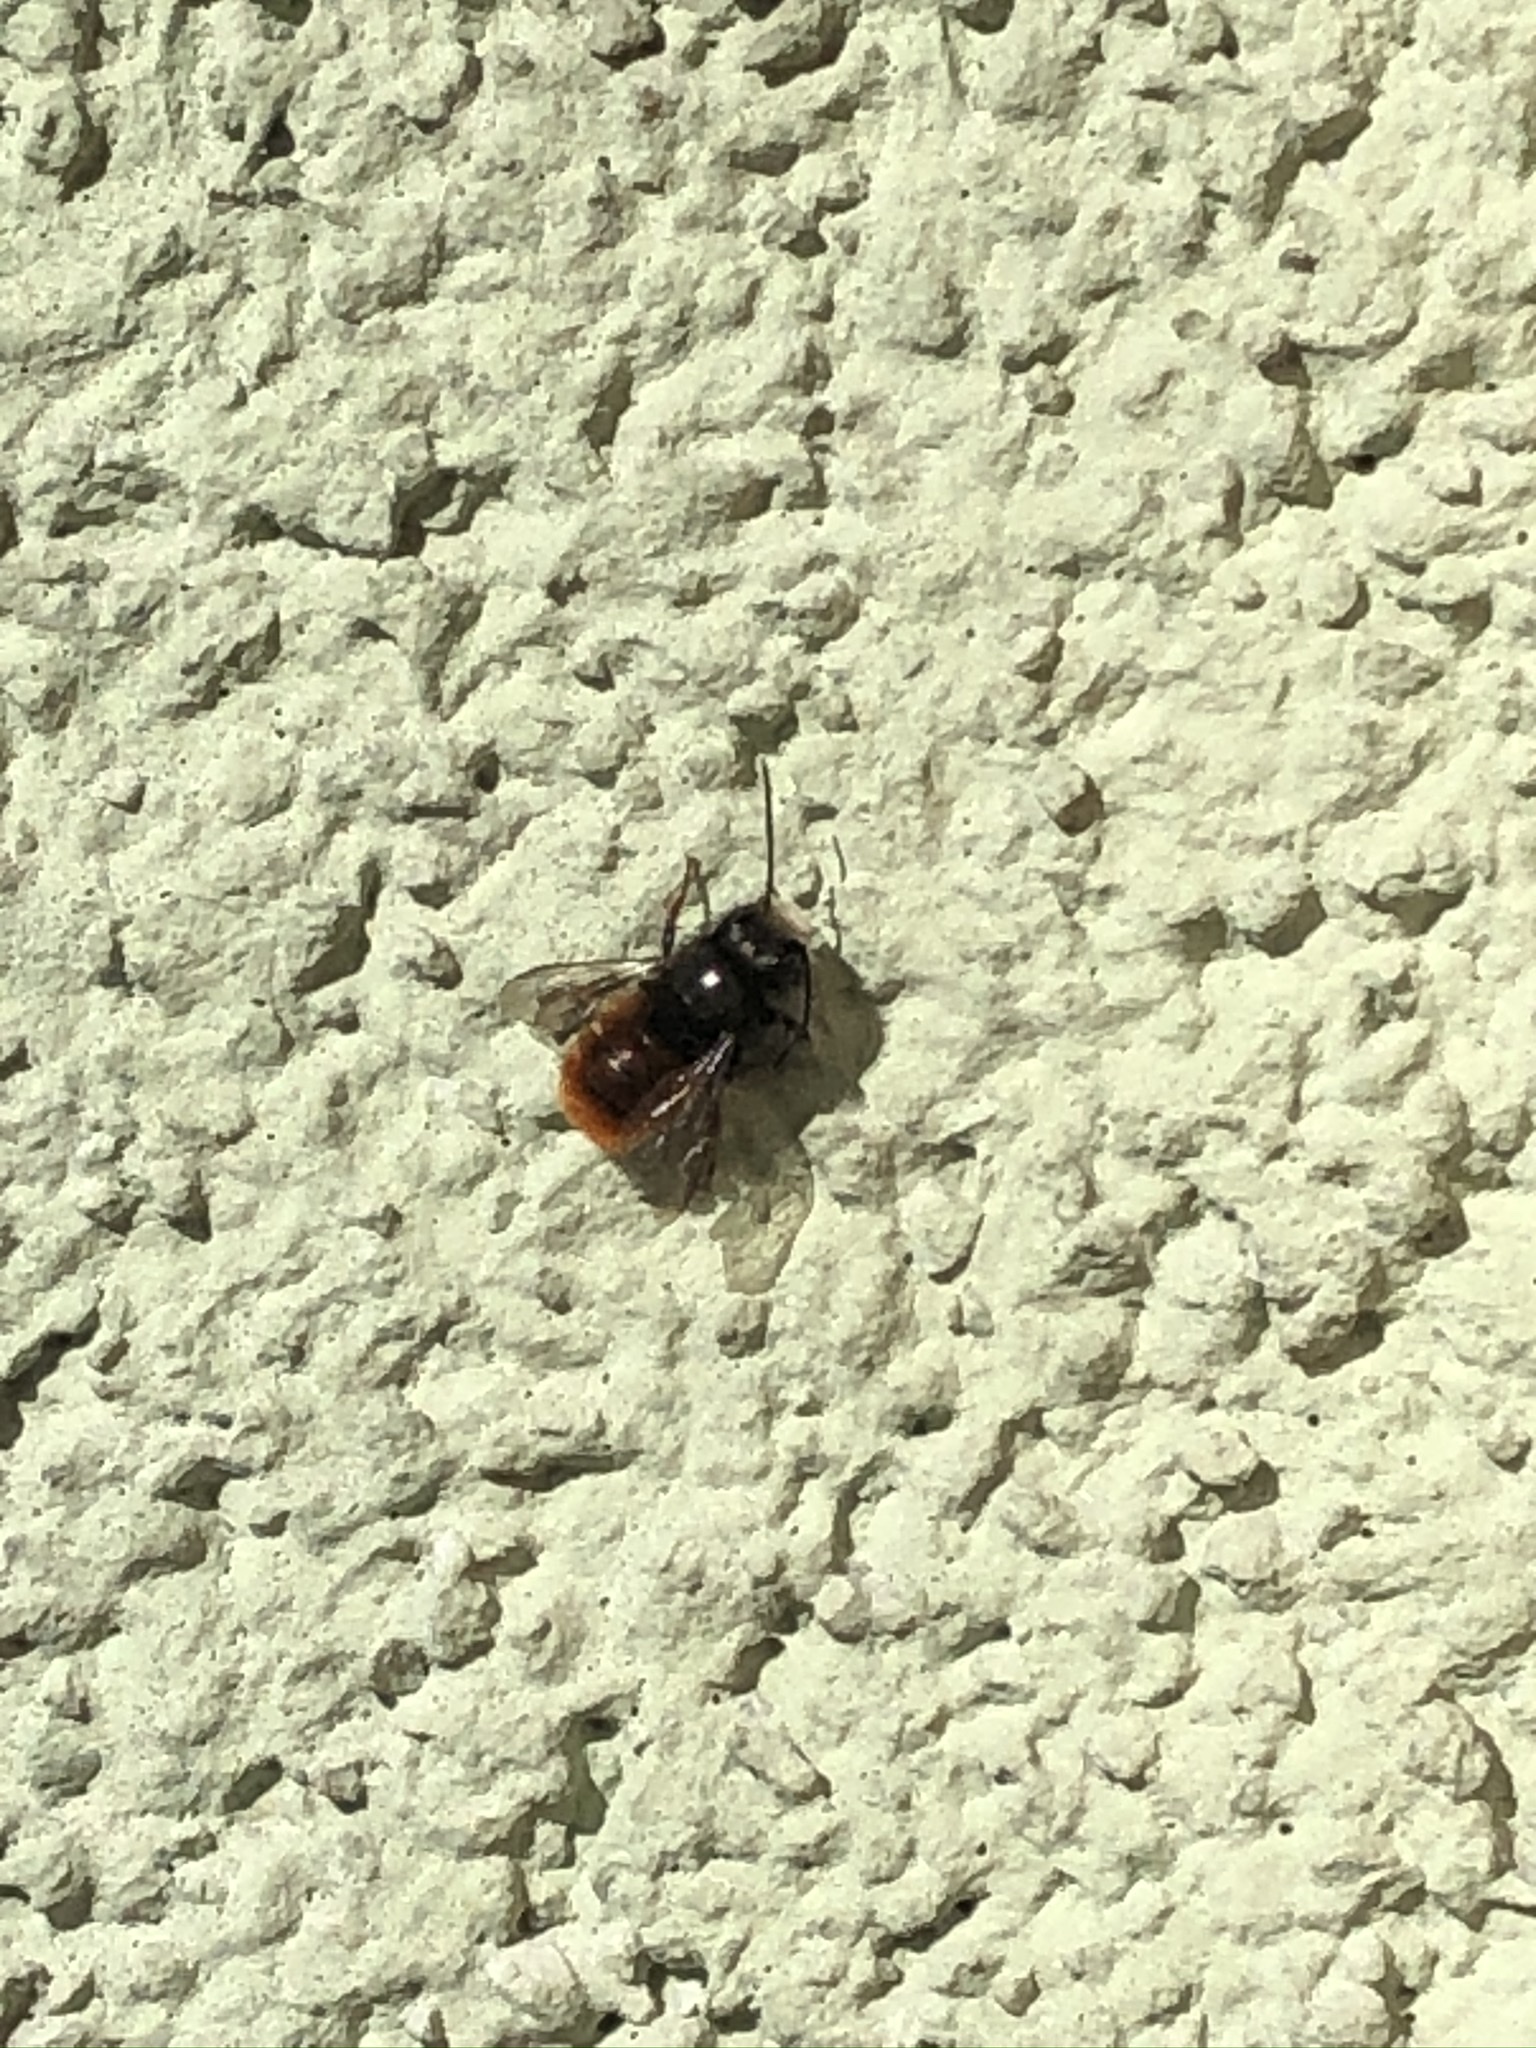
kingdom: Animalia
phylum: Arthropoda
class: Insecta
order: Hymenoptera
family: Megachilidae
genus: Osmia
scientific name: Osmia cornuta
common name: Mason bee
